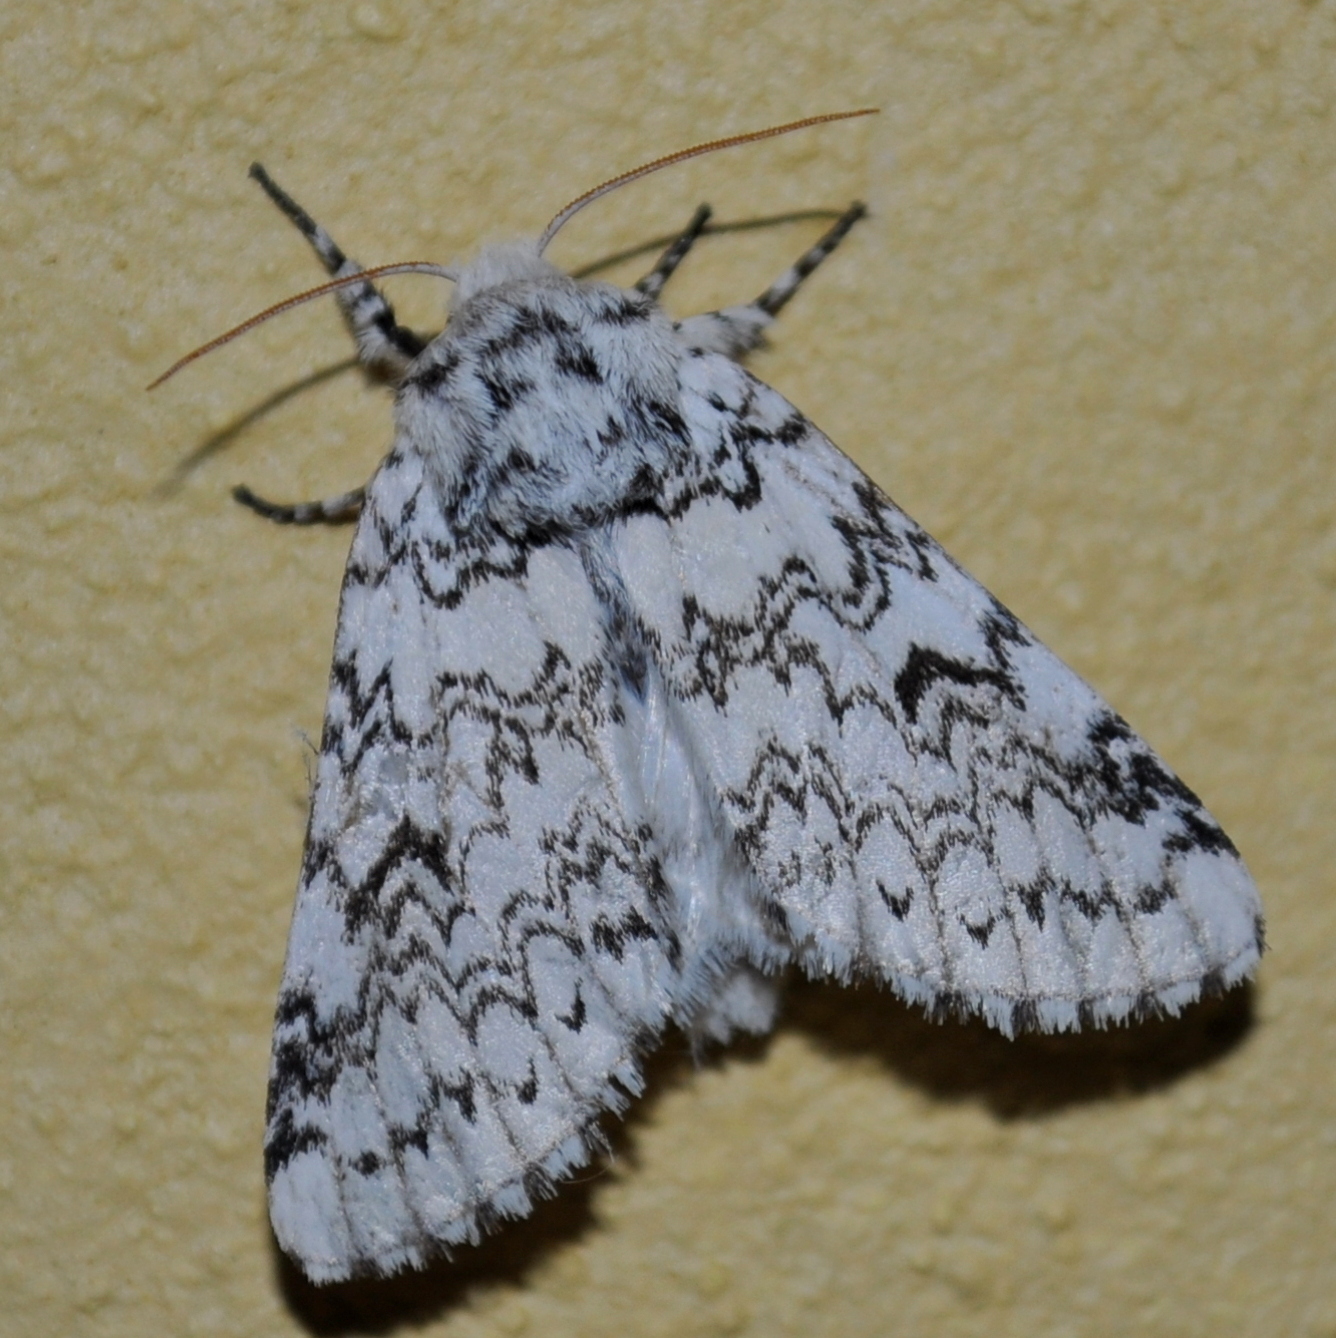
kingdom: Animalia
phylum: Arthropoda
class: Insecta
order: Lepidoptera
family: Notodontidae
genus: Tecmessa
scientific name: Tecmessa annulipes
